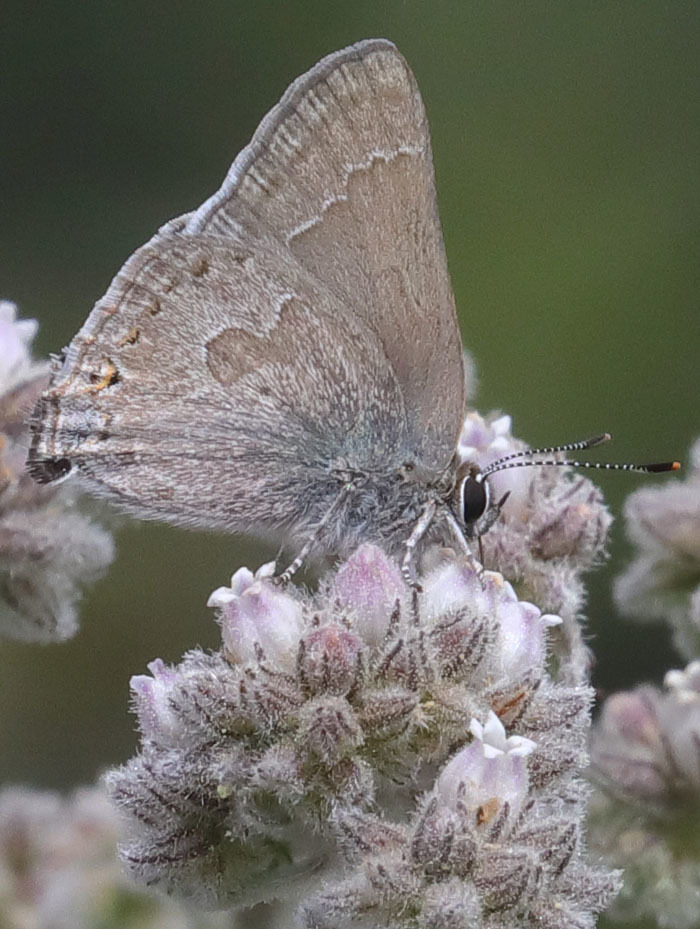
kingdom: Animalia
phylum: Arthropoda
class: Insecta
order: Lepidoptera
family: Lycaenidae
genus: Thecla
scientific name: Thecla tetra
